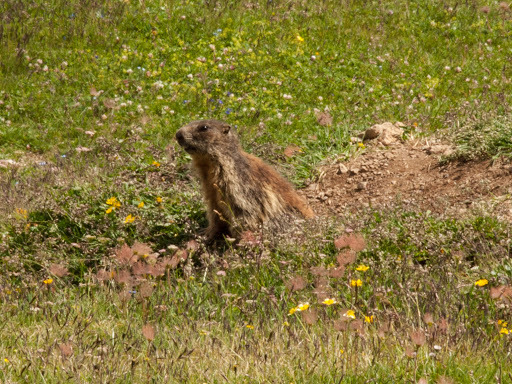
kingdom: Animalia
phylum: Chordata
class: Mammalia
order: Rodentia
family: Sciuridae
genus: Marmota
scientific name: Marmota marmota
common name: Alpine marmot
